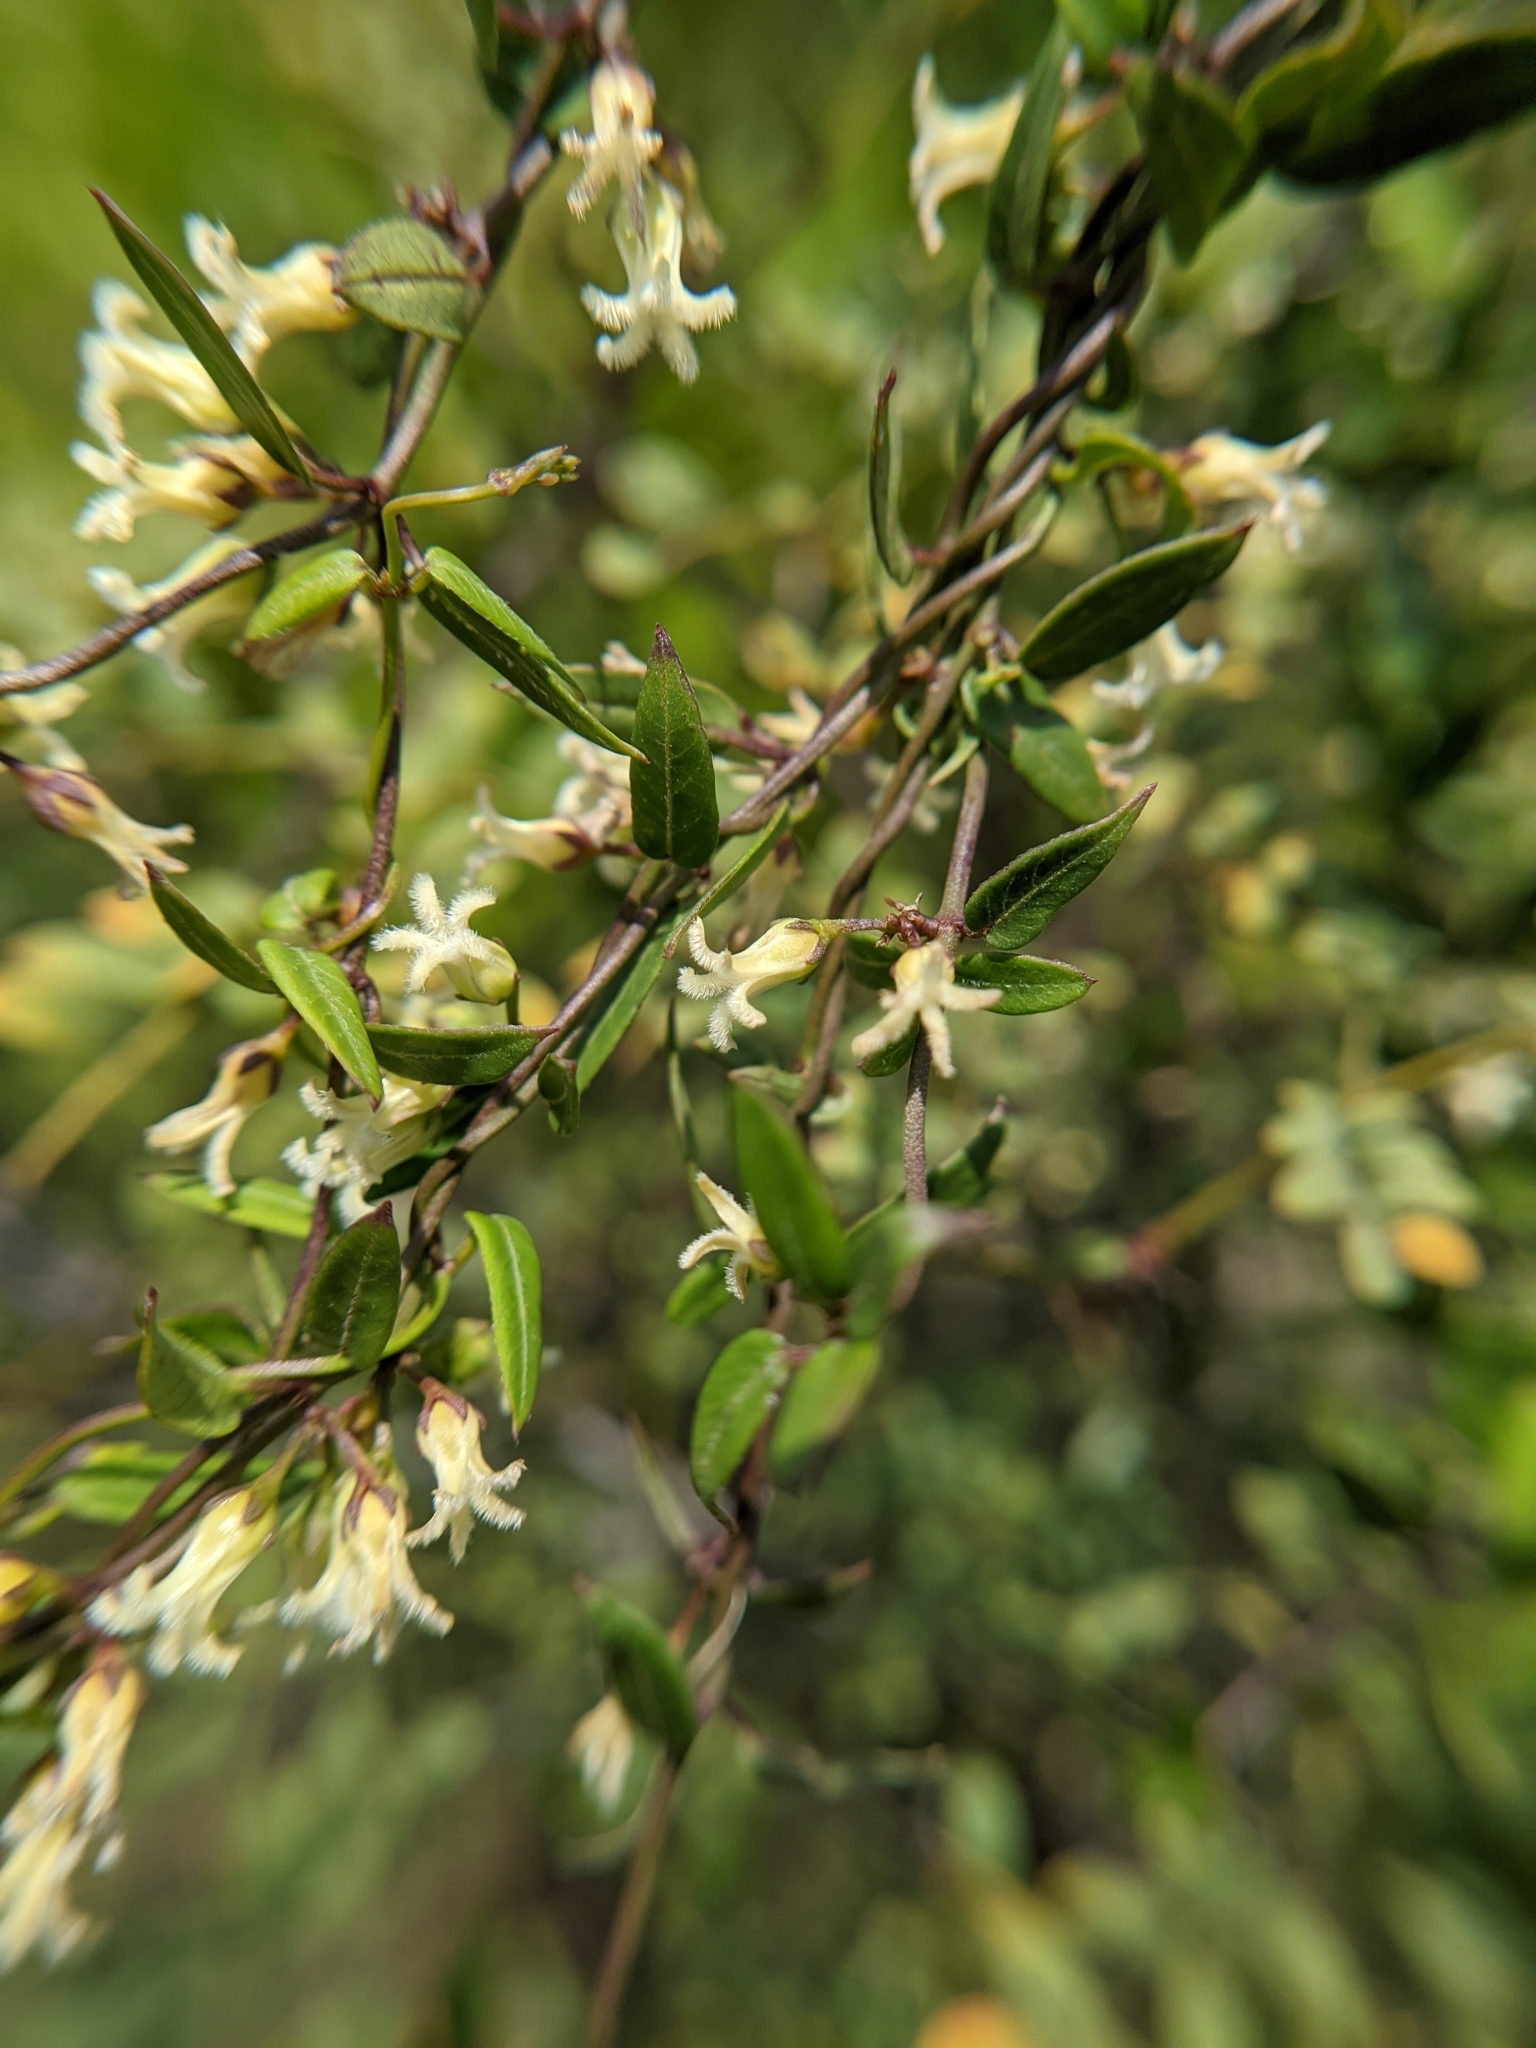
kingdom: Plantae
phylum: Tracheophyta
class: Magnoliopsida
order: Gentianales
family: Apocynaceae
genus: Metastelma
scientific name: Metastelma barbigerum
